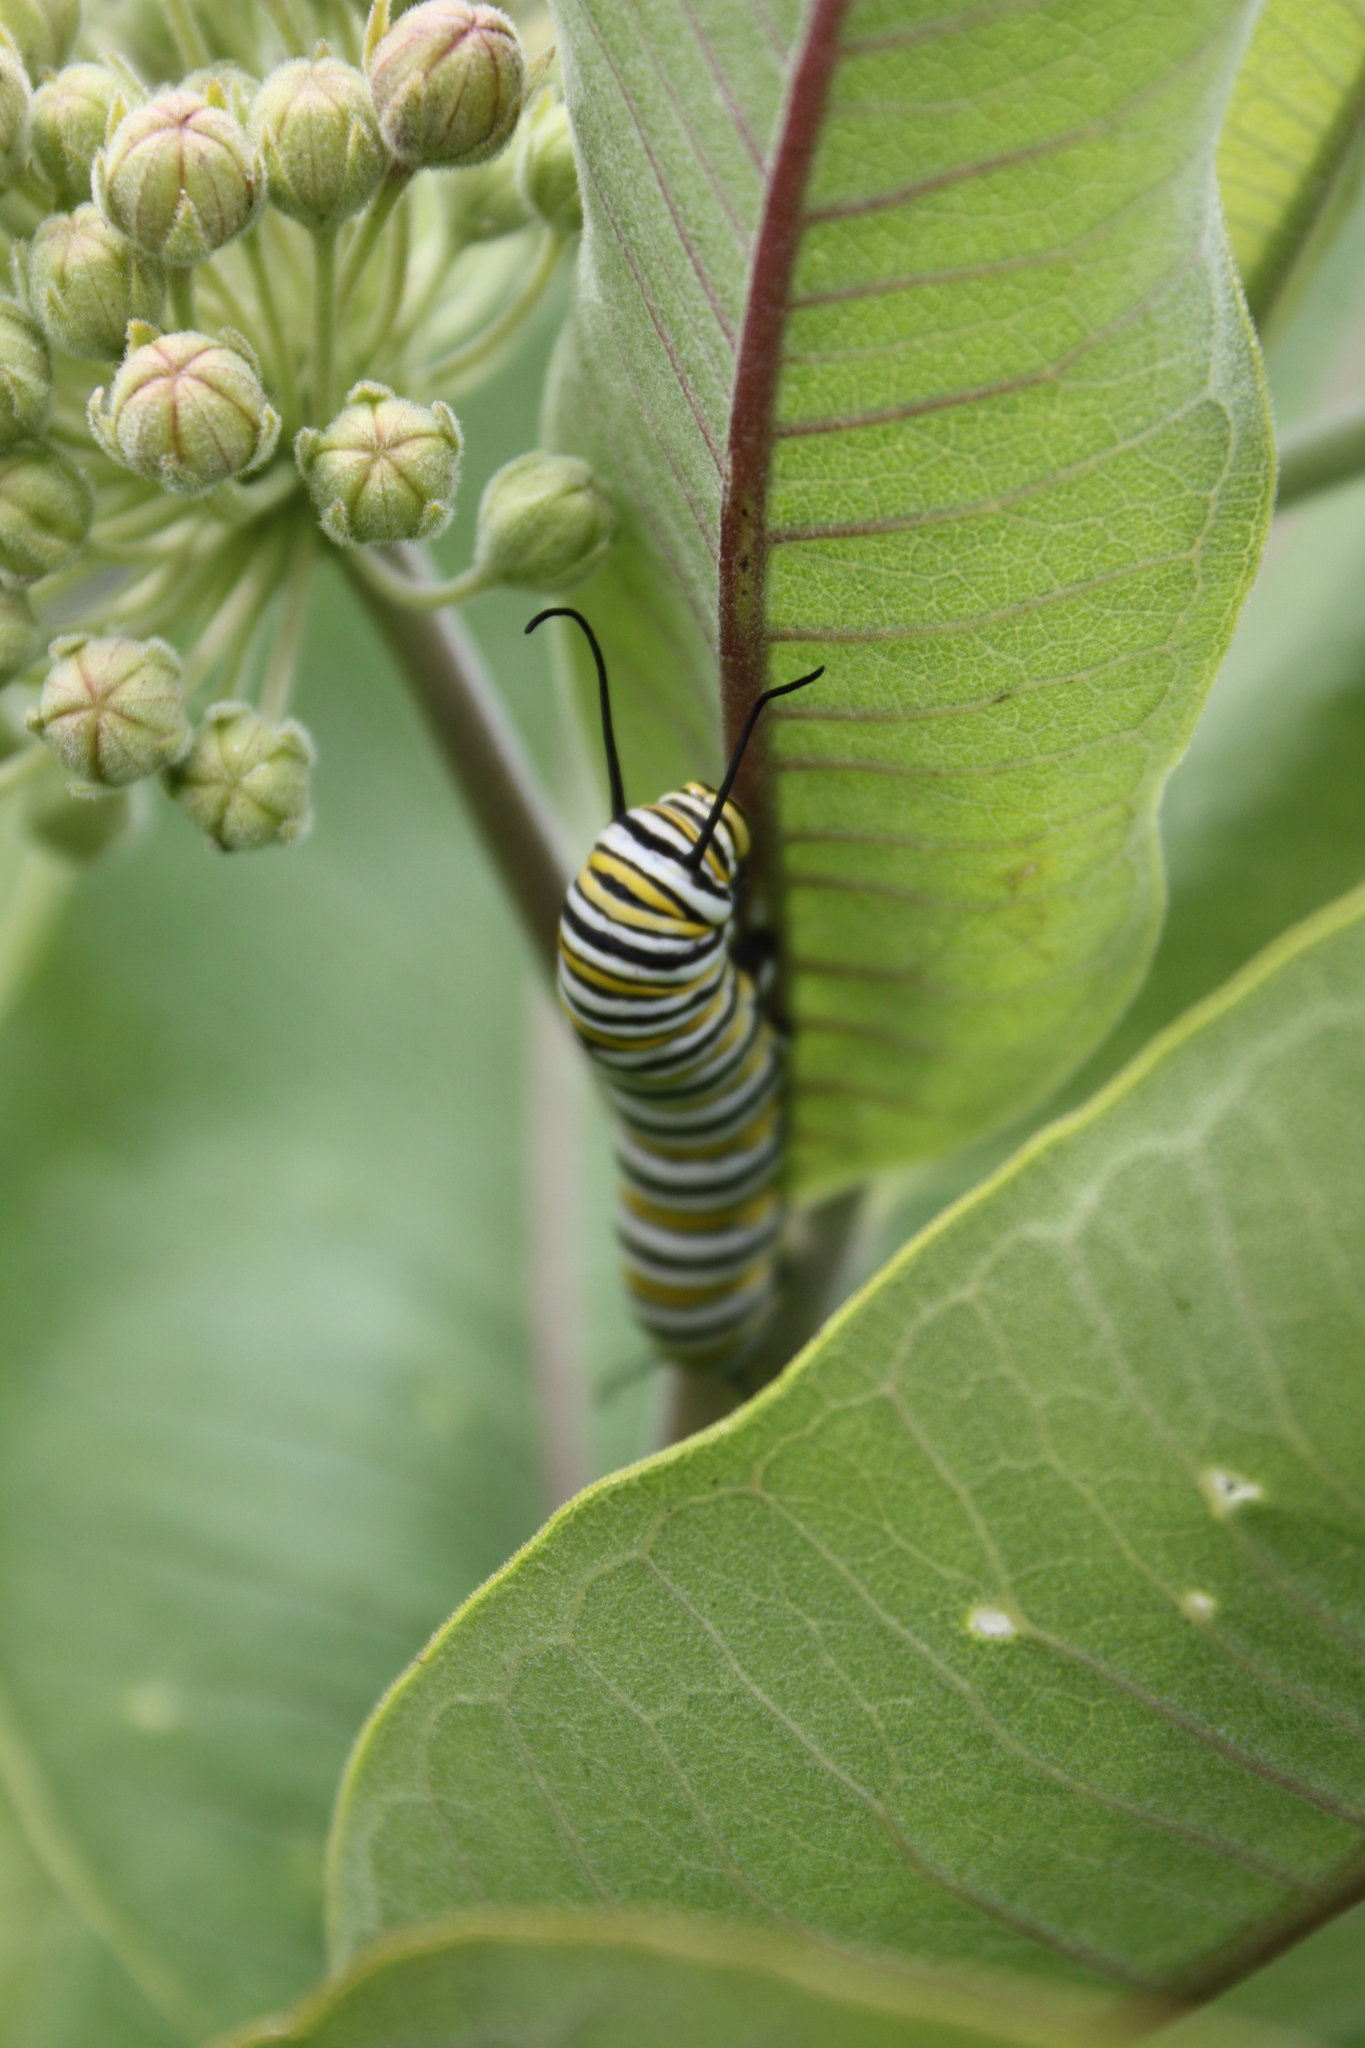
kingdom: Animalia
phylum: Arthropoda
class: Insecta
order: Lepidoptera
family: Nymphalidae
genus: Danaus
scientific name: Danaus plexippus
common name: Monarch
